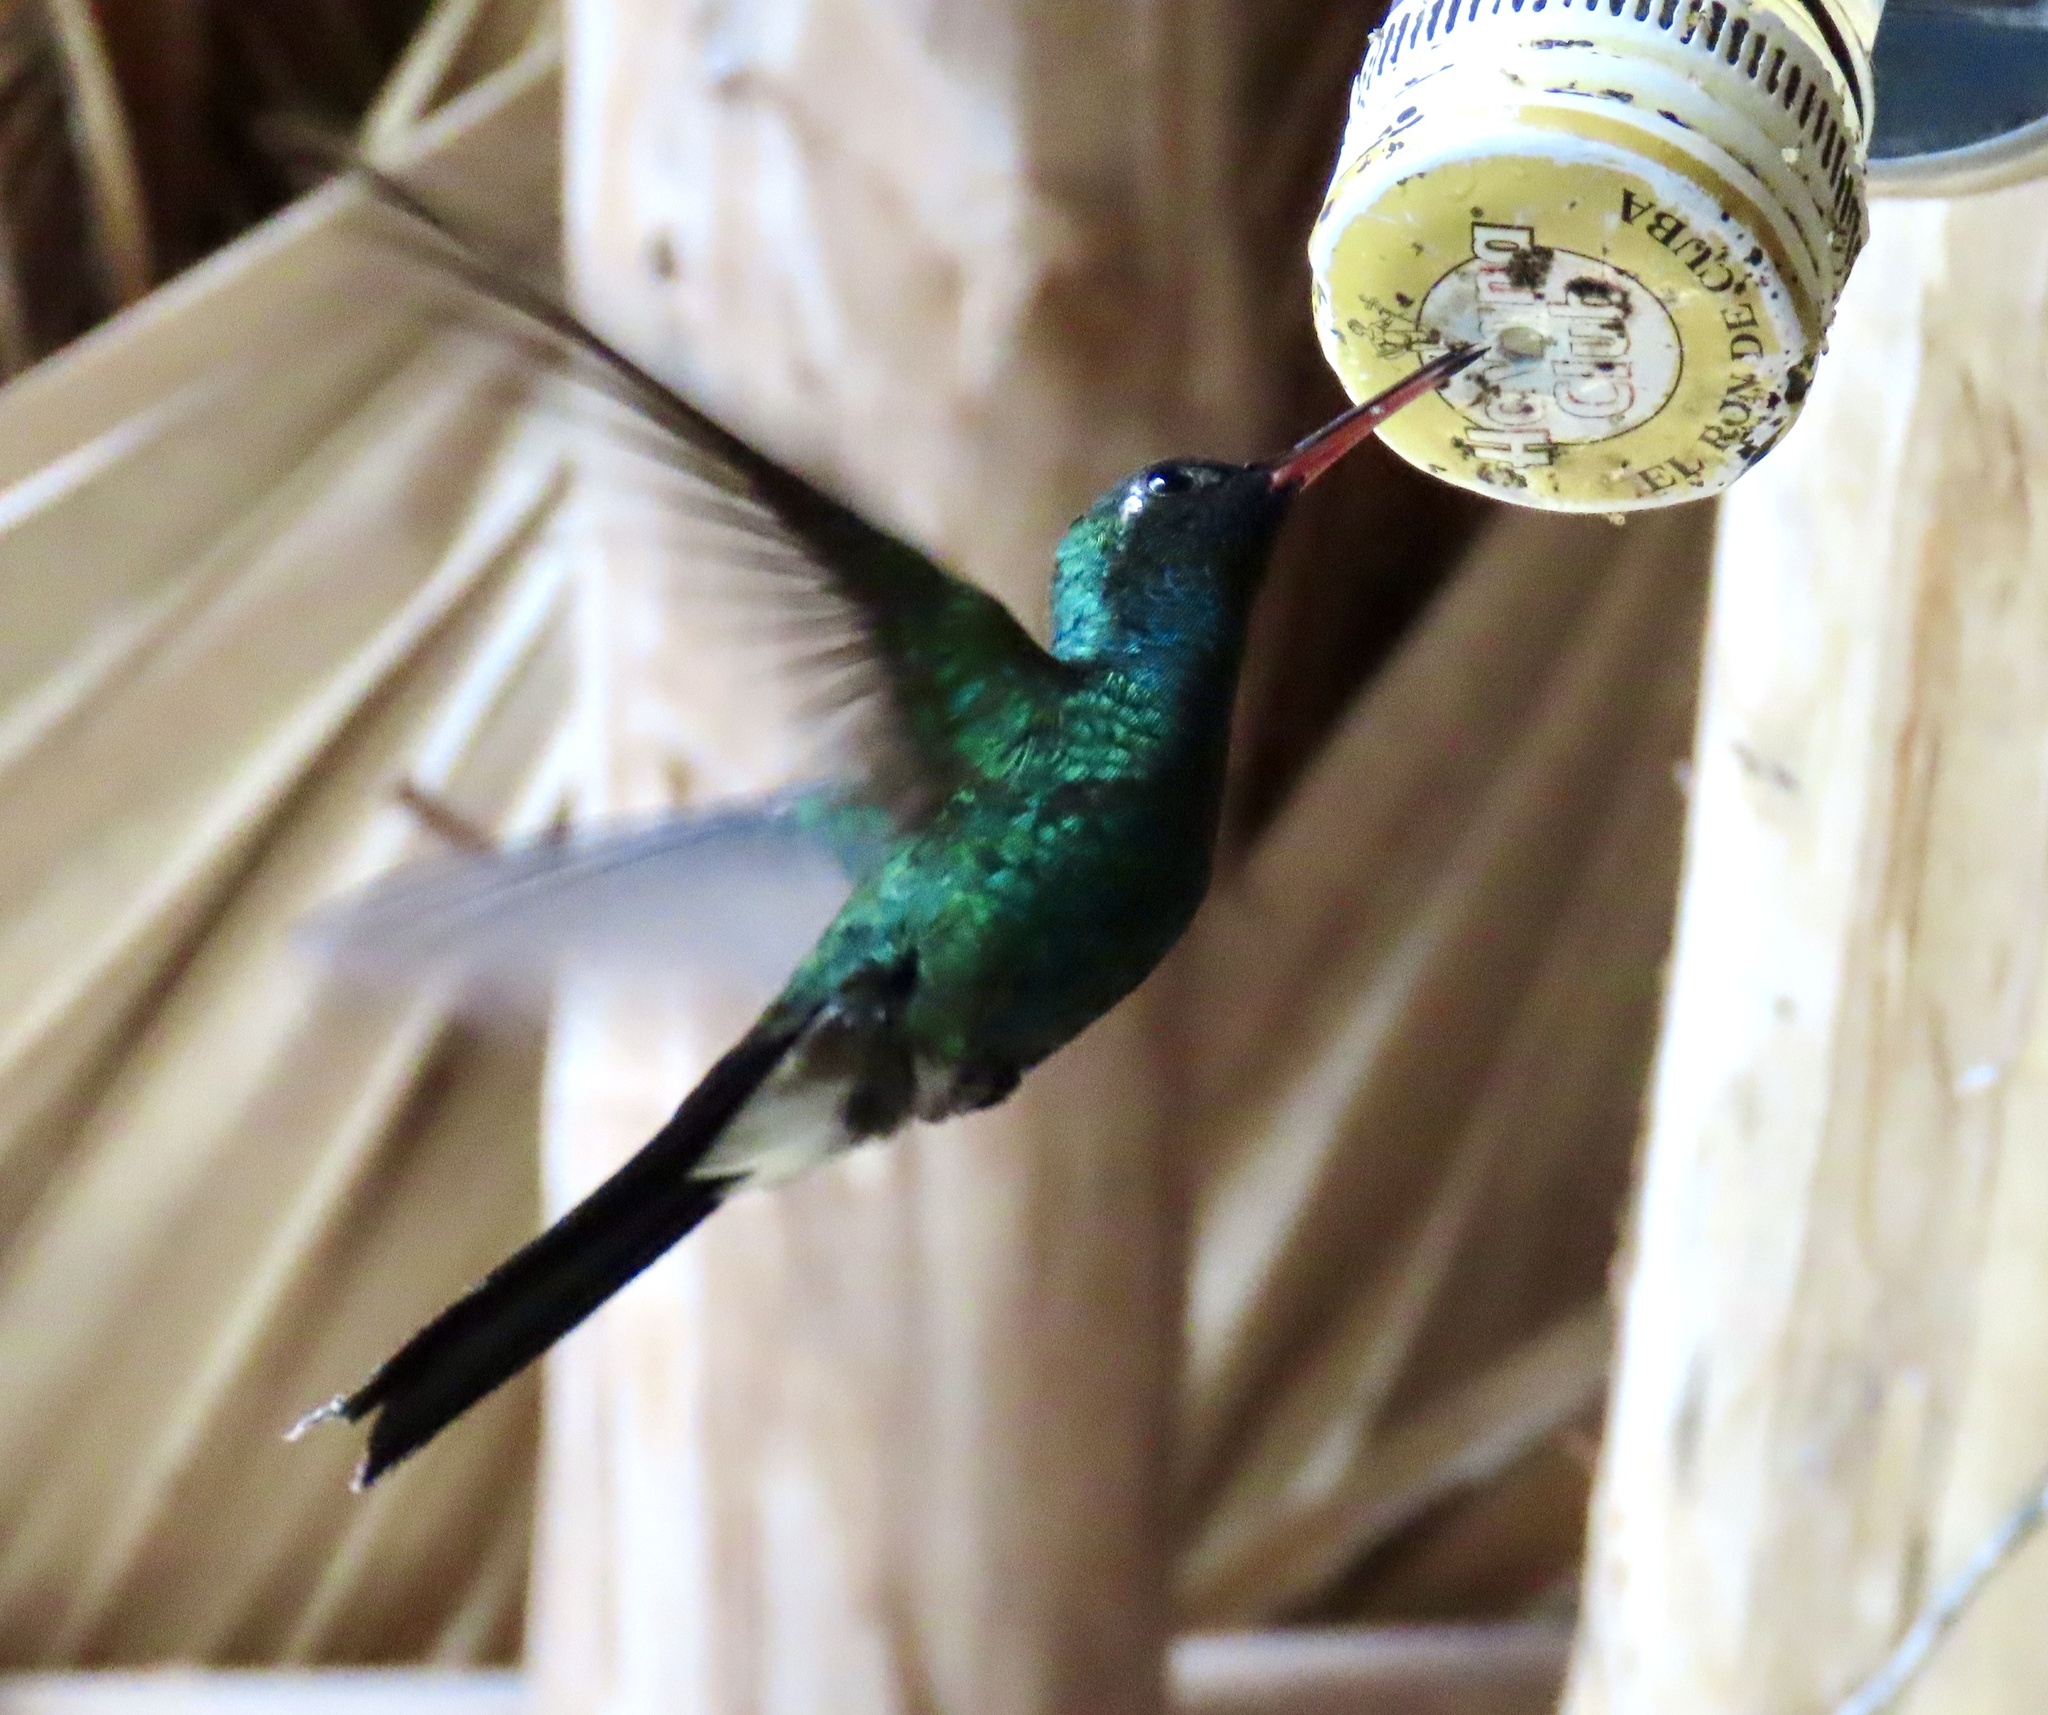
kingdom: Animalia
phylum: Chordata
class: Aves
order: Apodiformes
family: Trochilidae
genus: Riccordia
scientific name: Riccordia ricordii
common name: Cuban emerald
